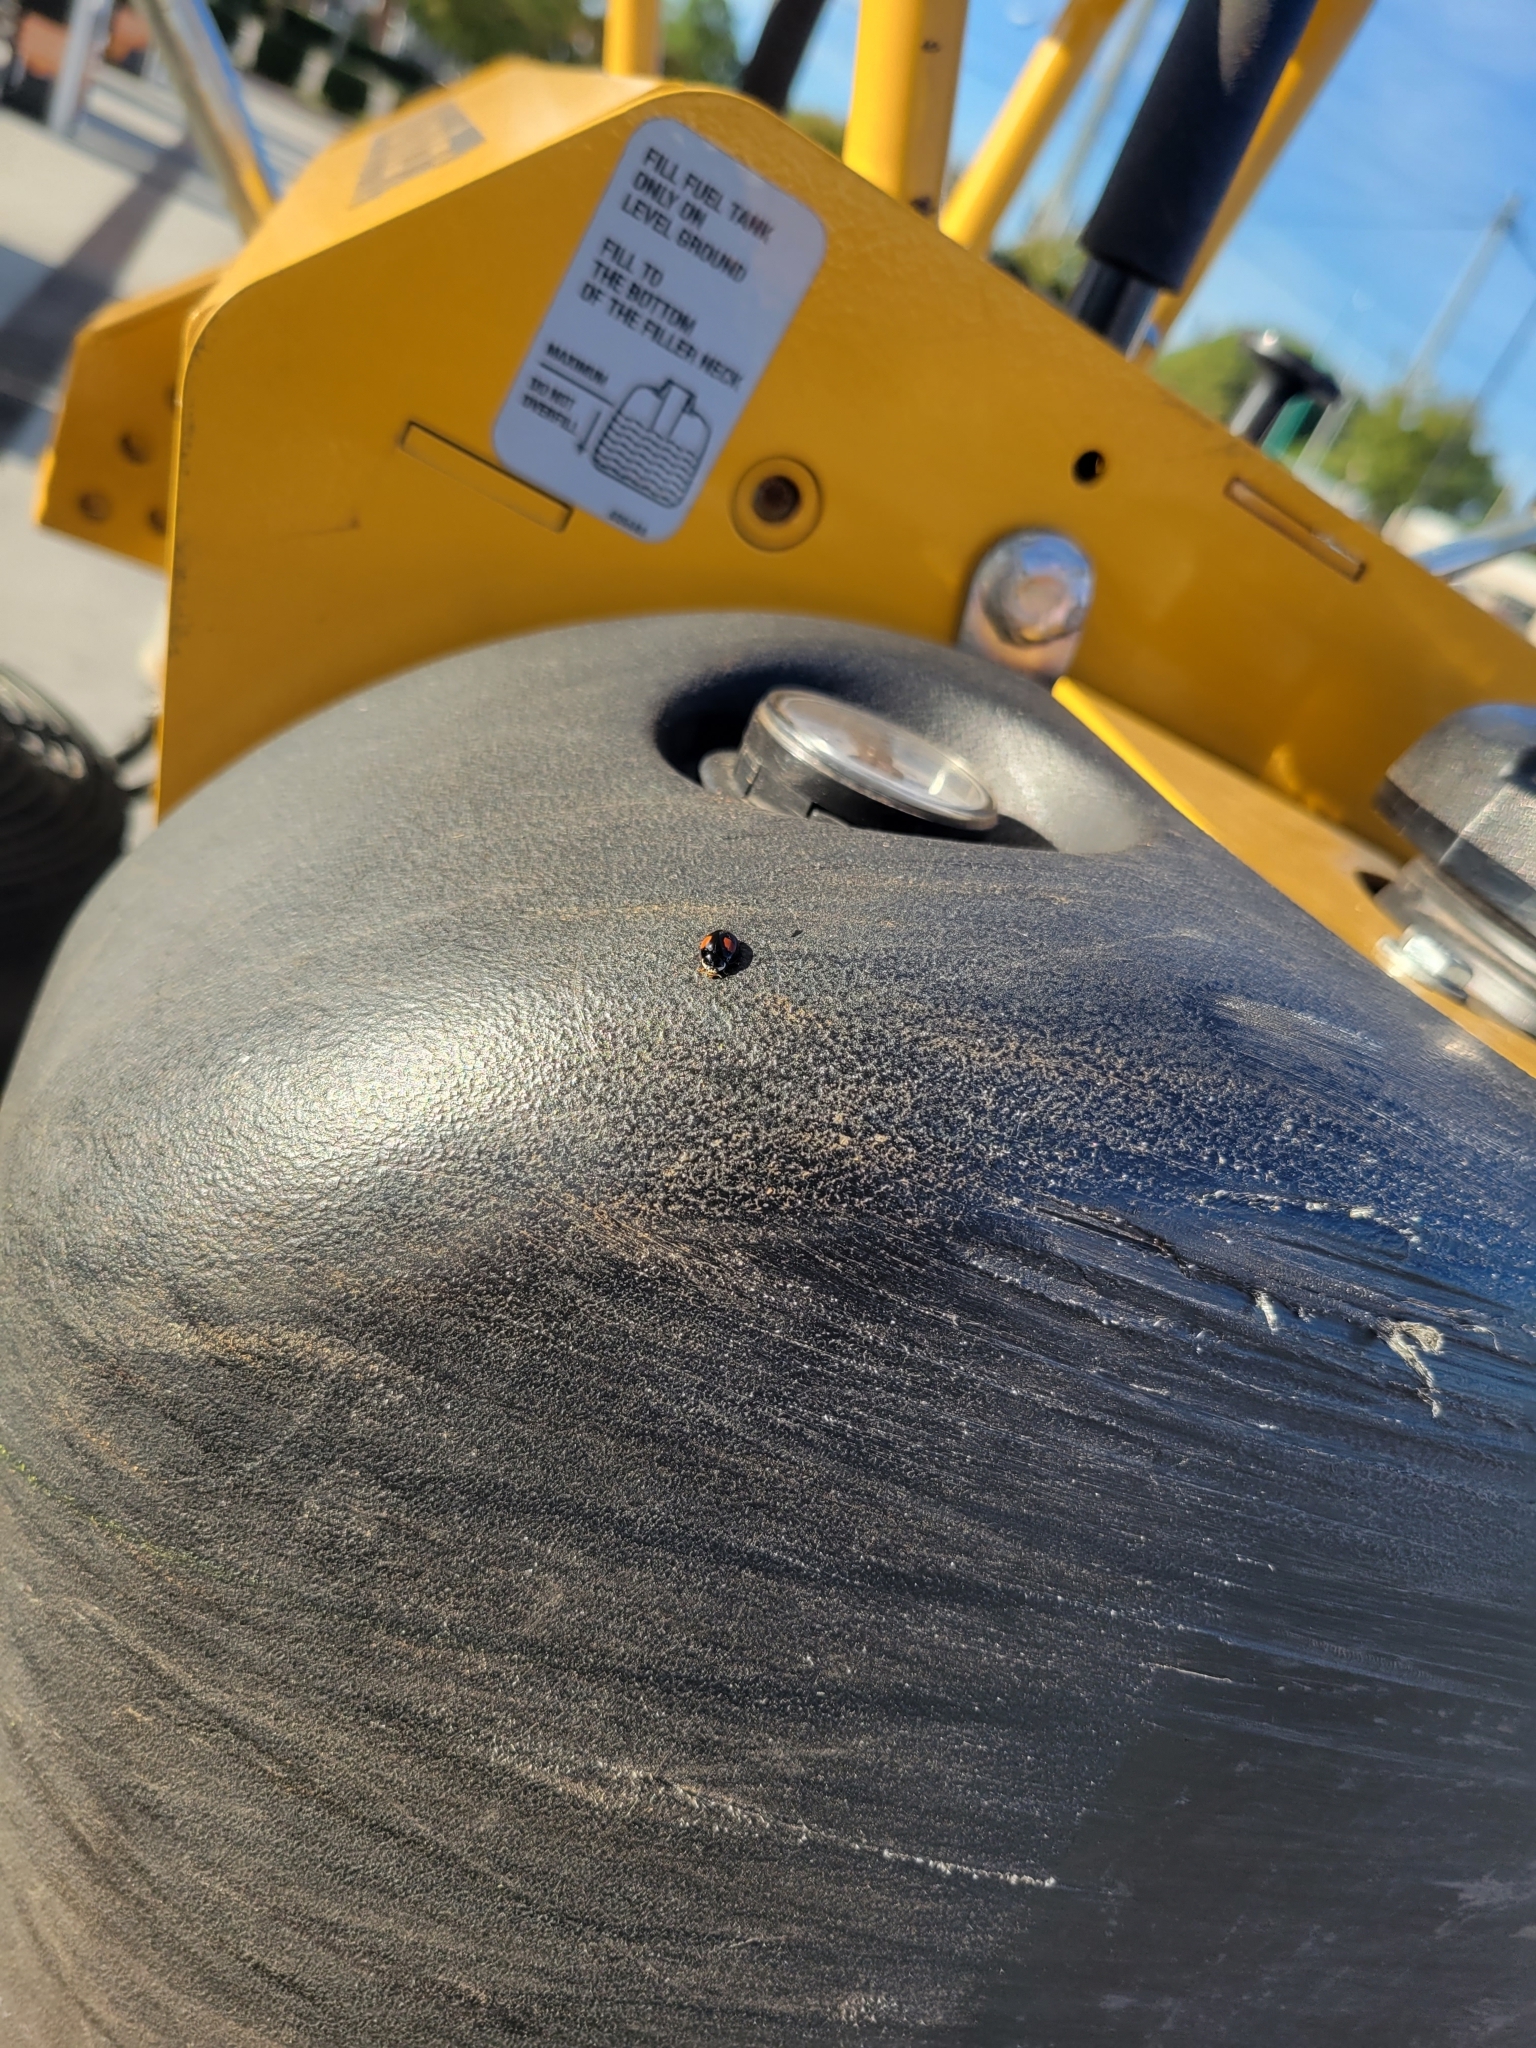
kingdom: Animalia
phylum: Arthropoda
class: Insecta
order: Coleoptera
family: Coccinellidae
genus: Olla
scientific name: Olla v-nigrum
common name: Ashy gray lady beetle
